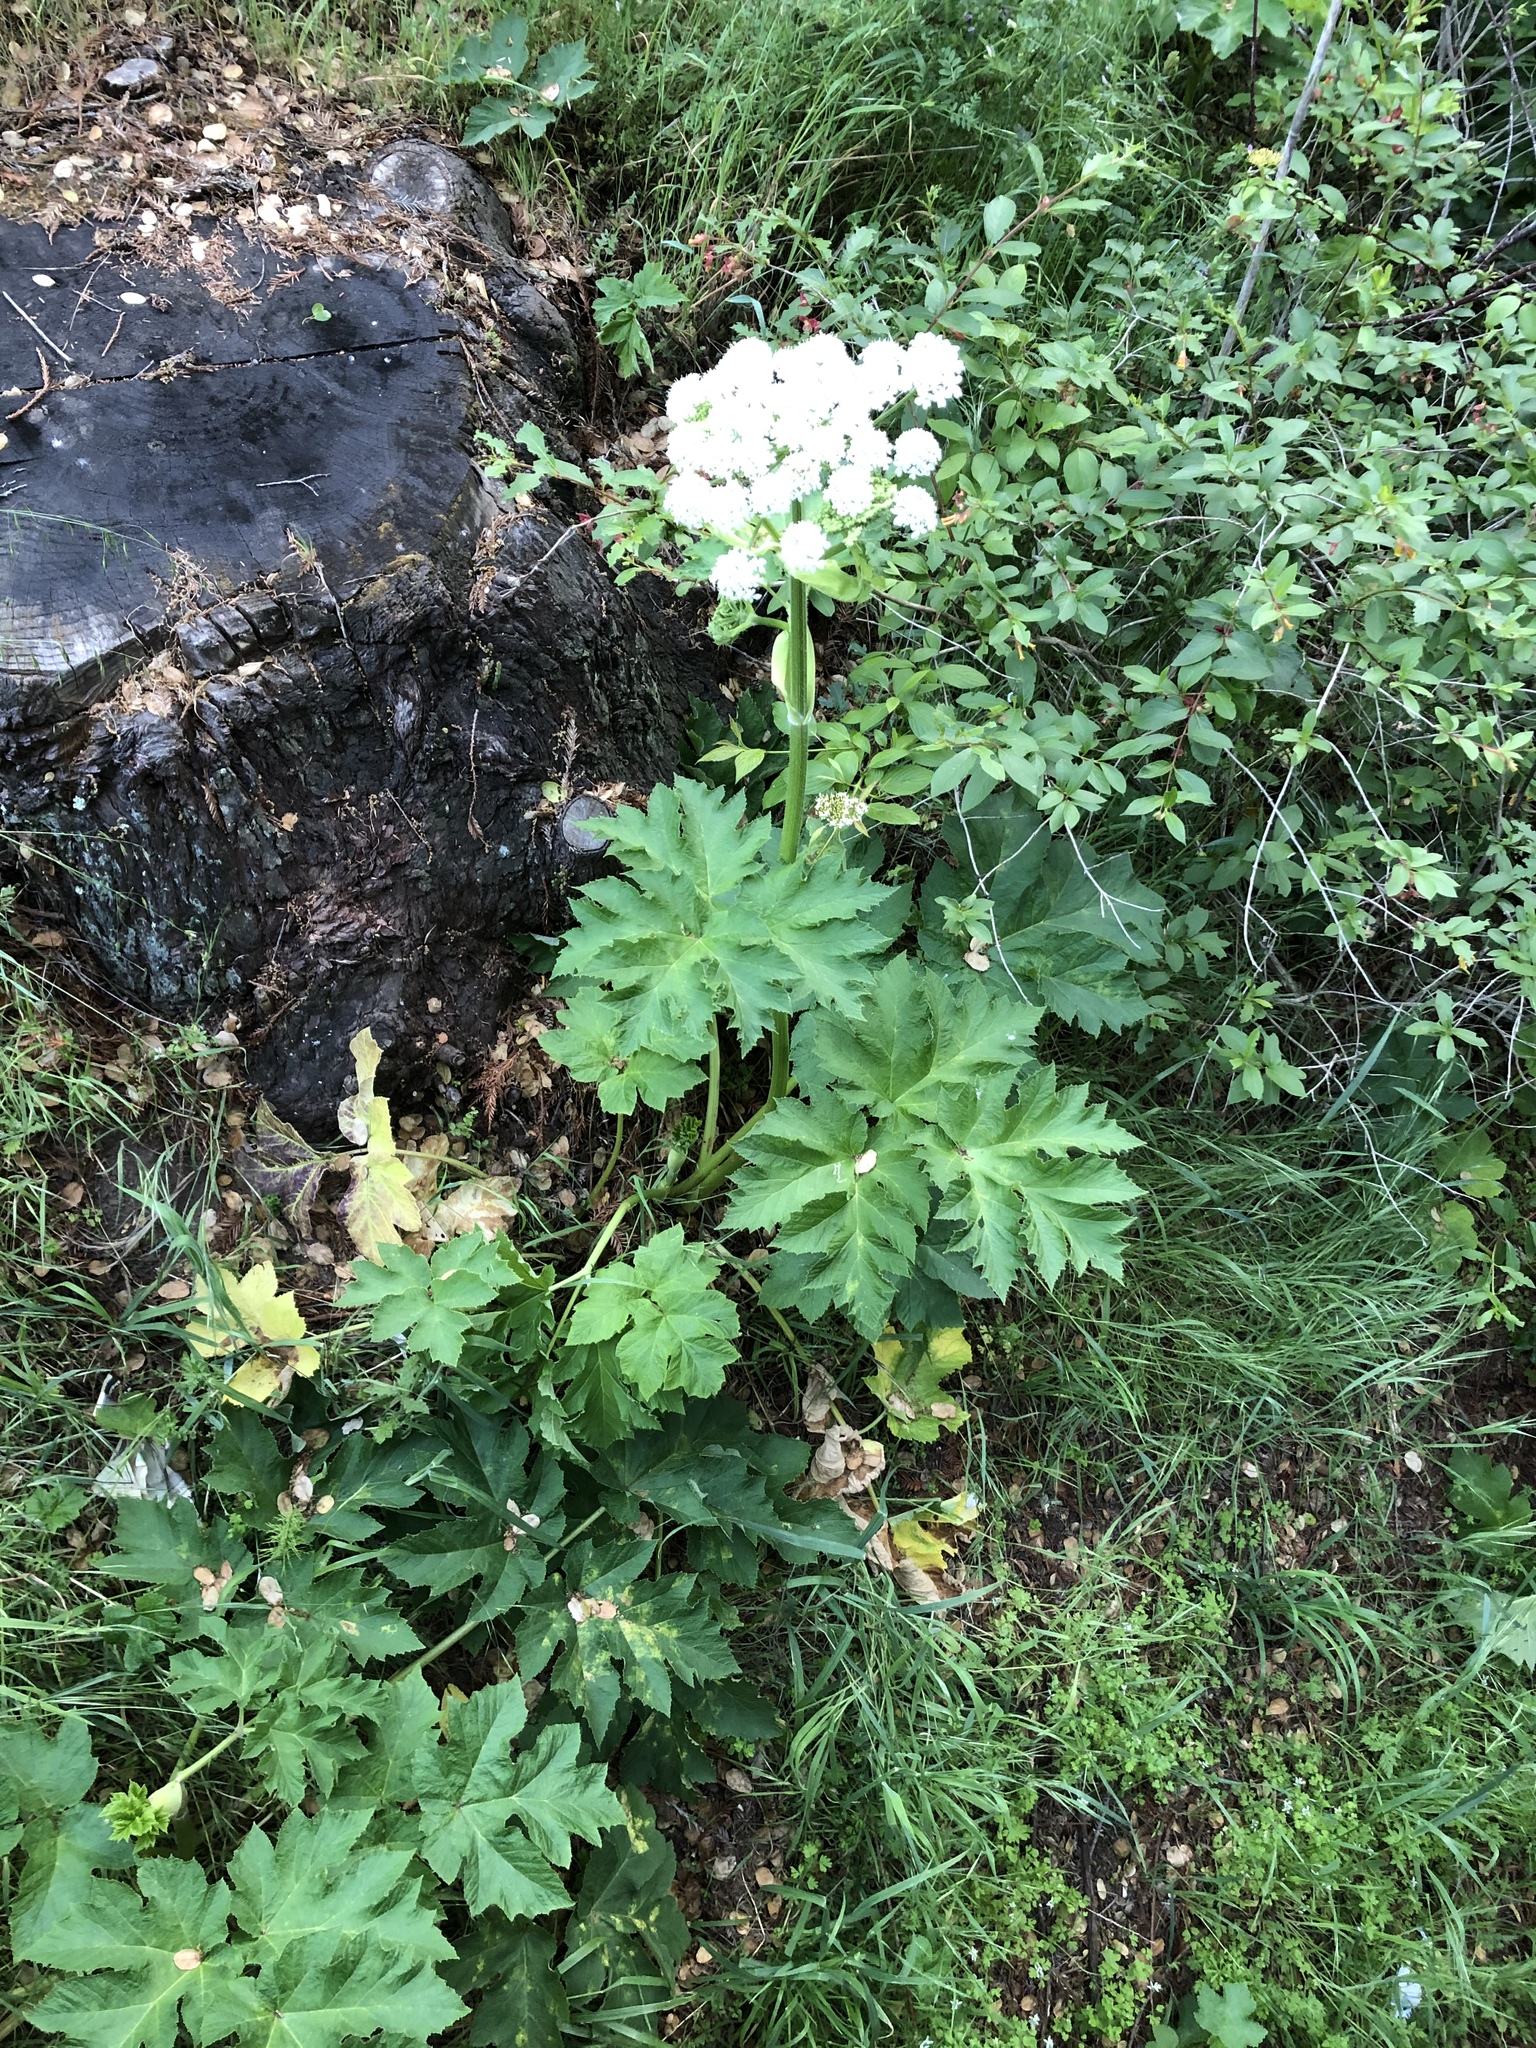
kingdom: Plantae
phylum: Tracheophyta
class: Magnoliopsida
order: Apiales
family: Apiaceae
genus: Heracleum
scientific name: Heracleum maximum
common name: American cow parsnip
